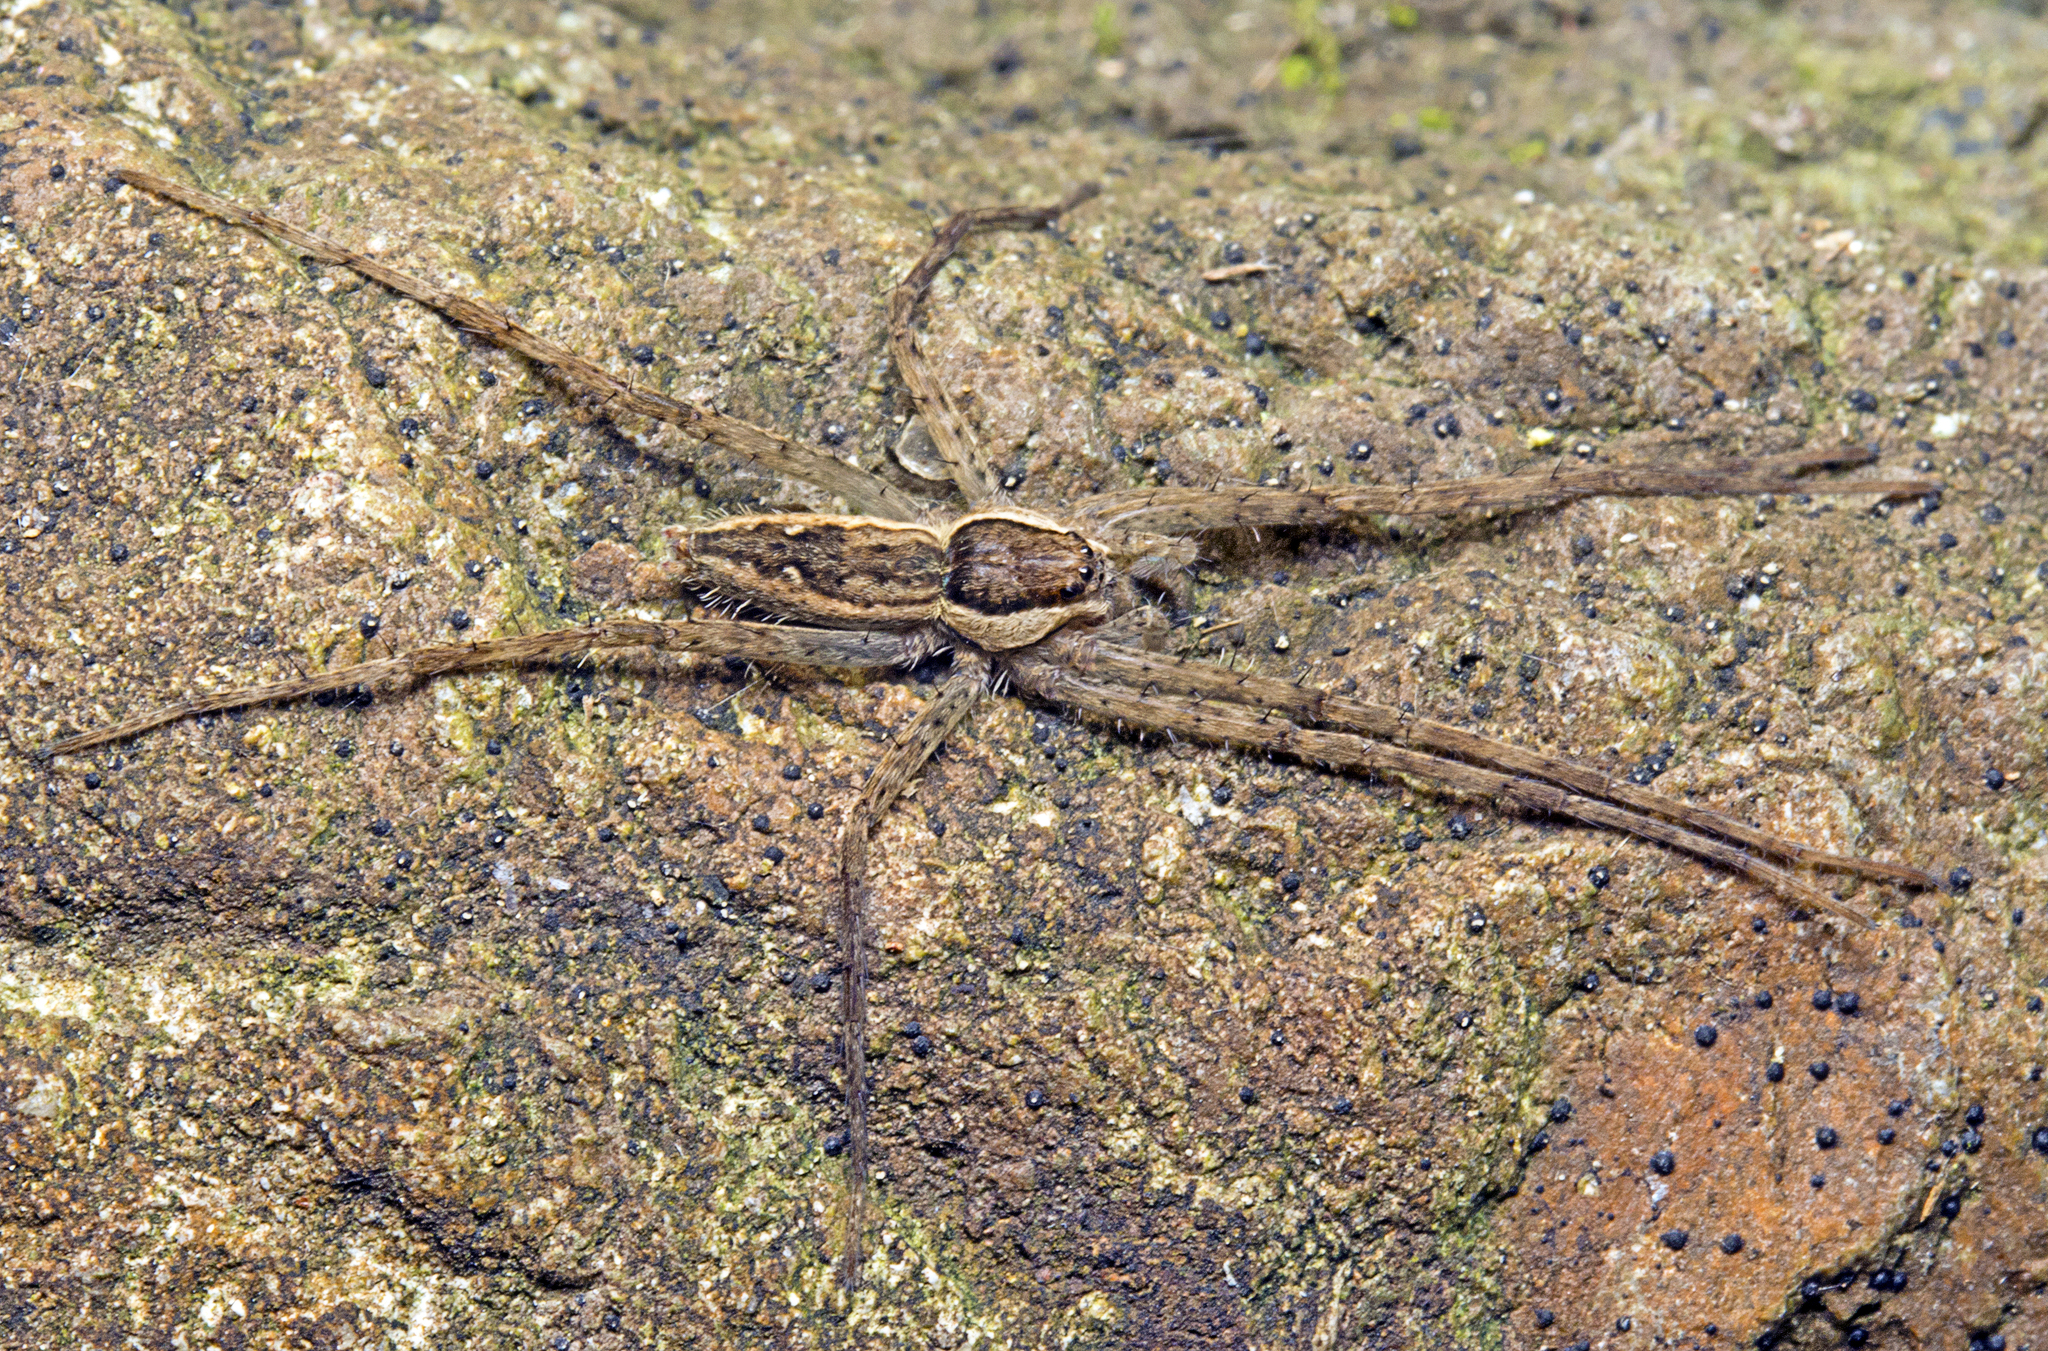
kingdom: Animalia
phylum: Arthropoda
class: Arachnida
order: Araneae
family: Pisauridae
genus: Megadolomedes
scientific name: Megadolomedes trux
